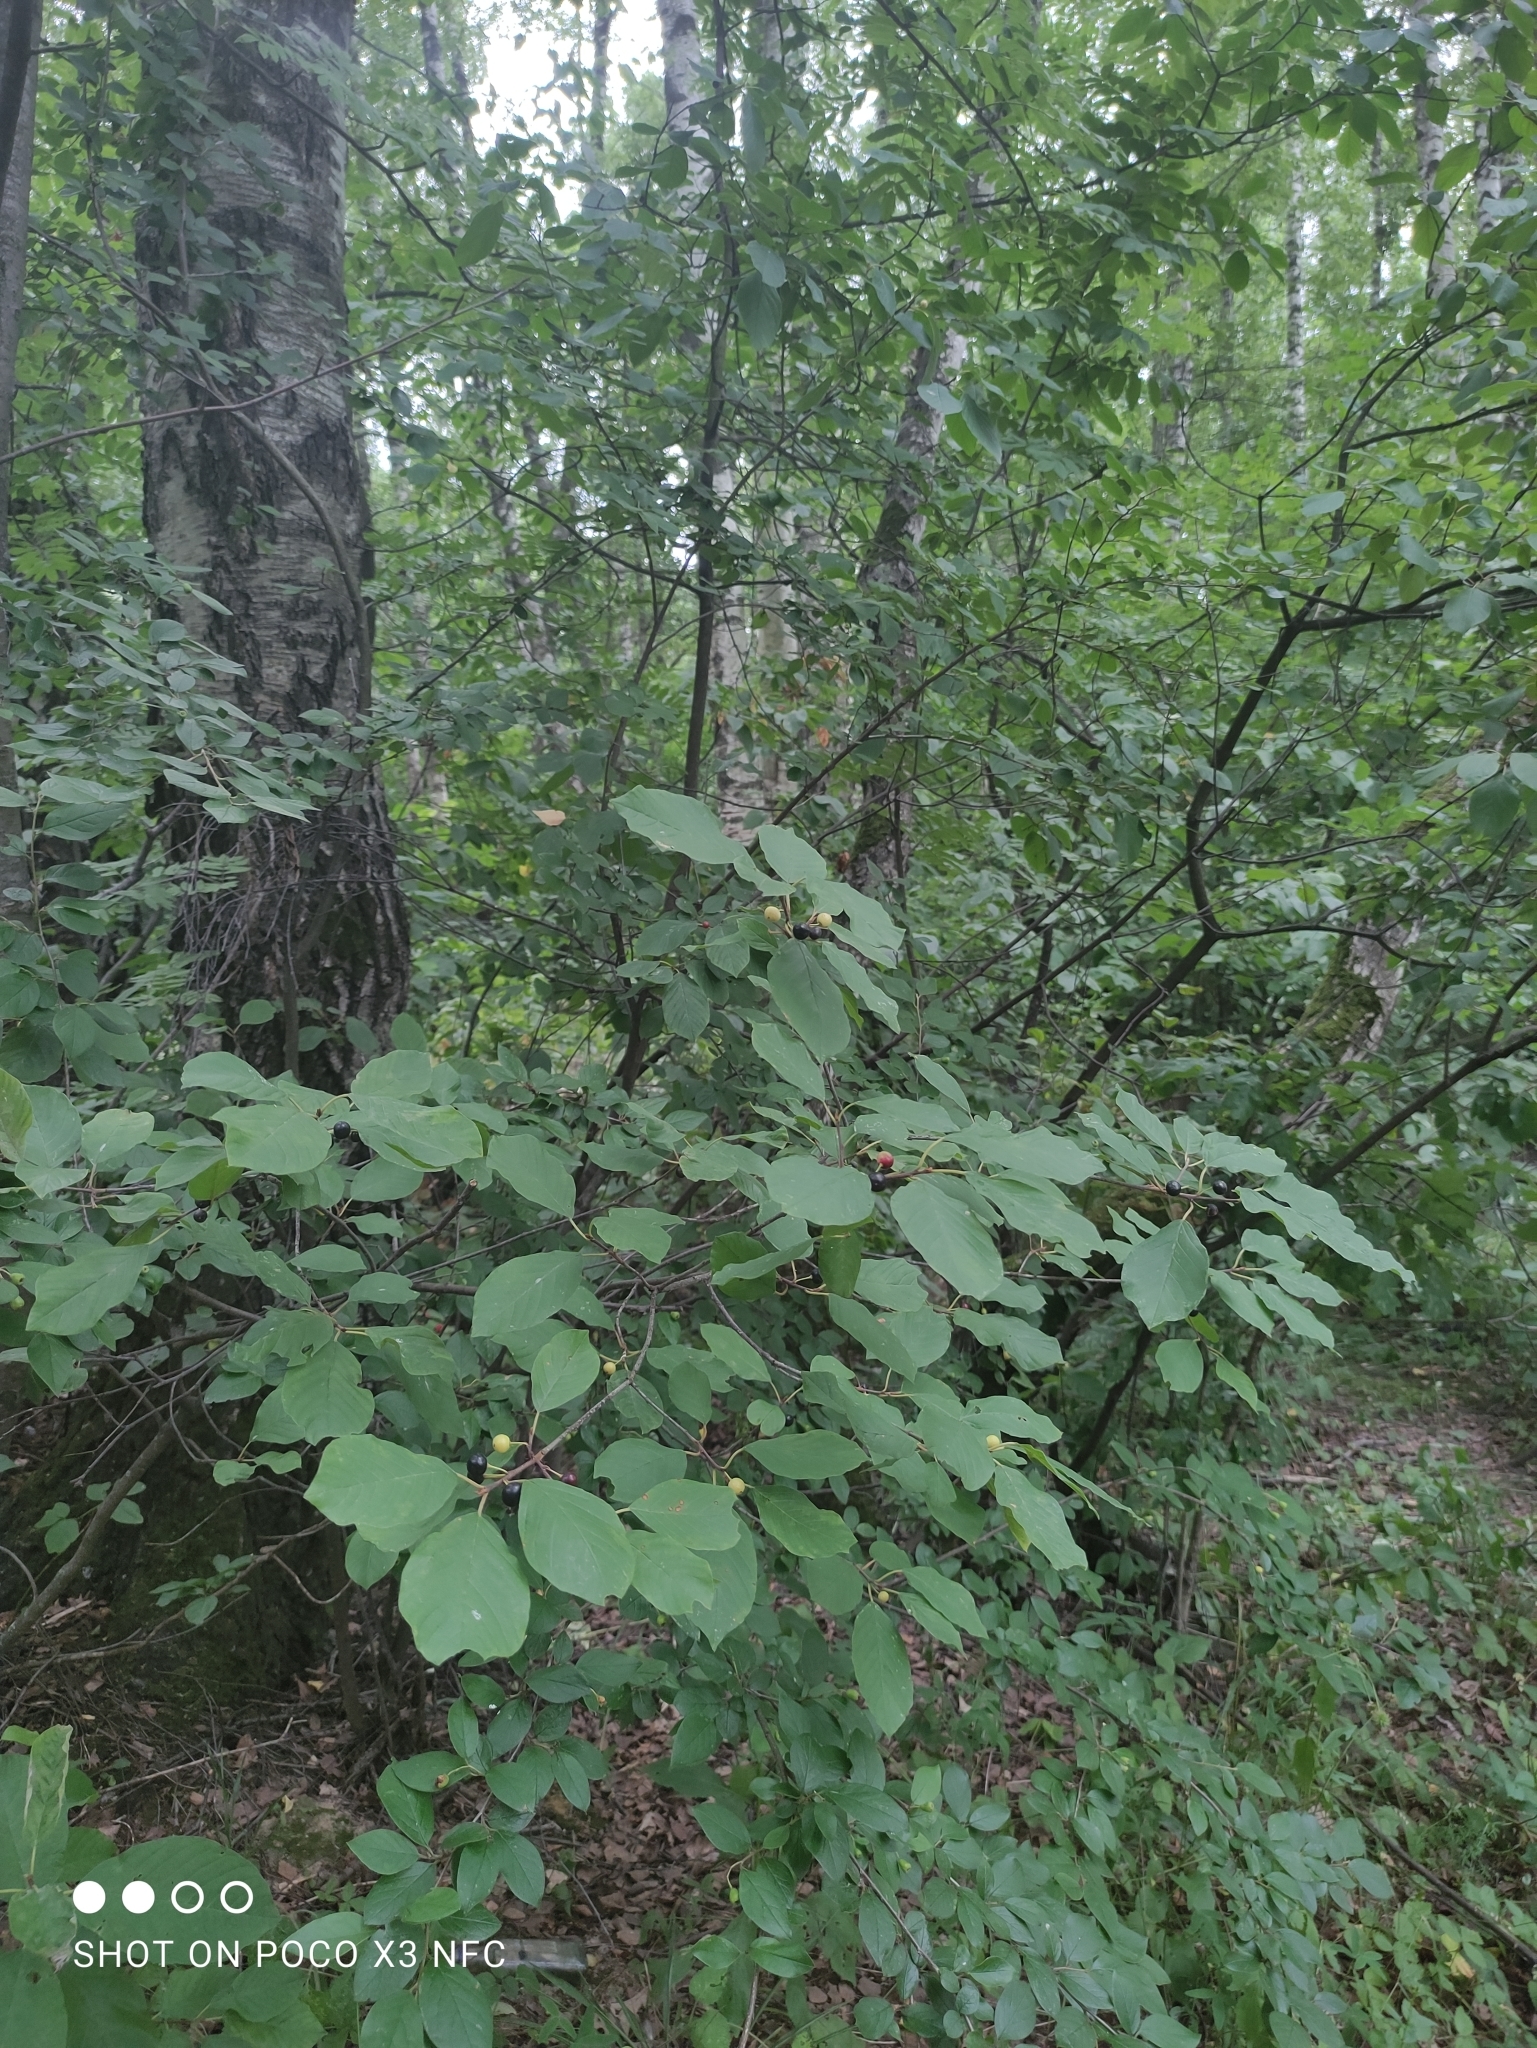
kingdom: Plantae
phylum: Tracheophyta
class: Magnoliopsida
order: Rosales
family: Rhamnaceae
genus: Frangula
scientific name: Frangula alnus
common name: Alder buckthorn
